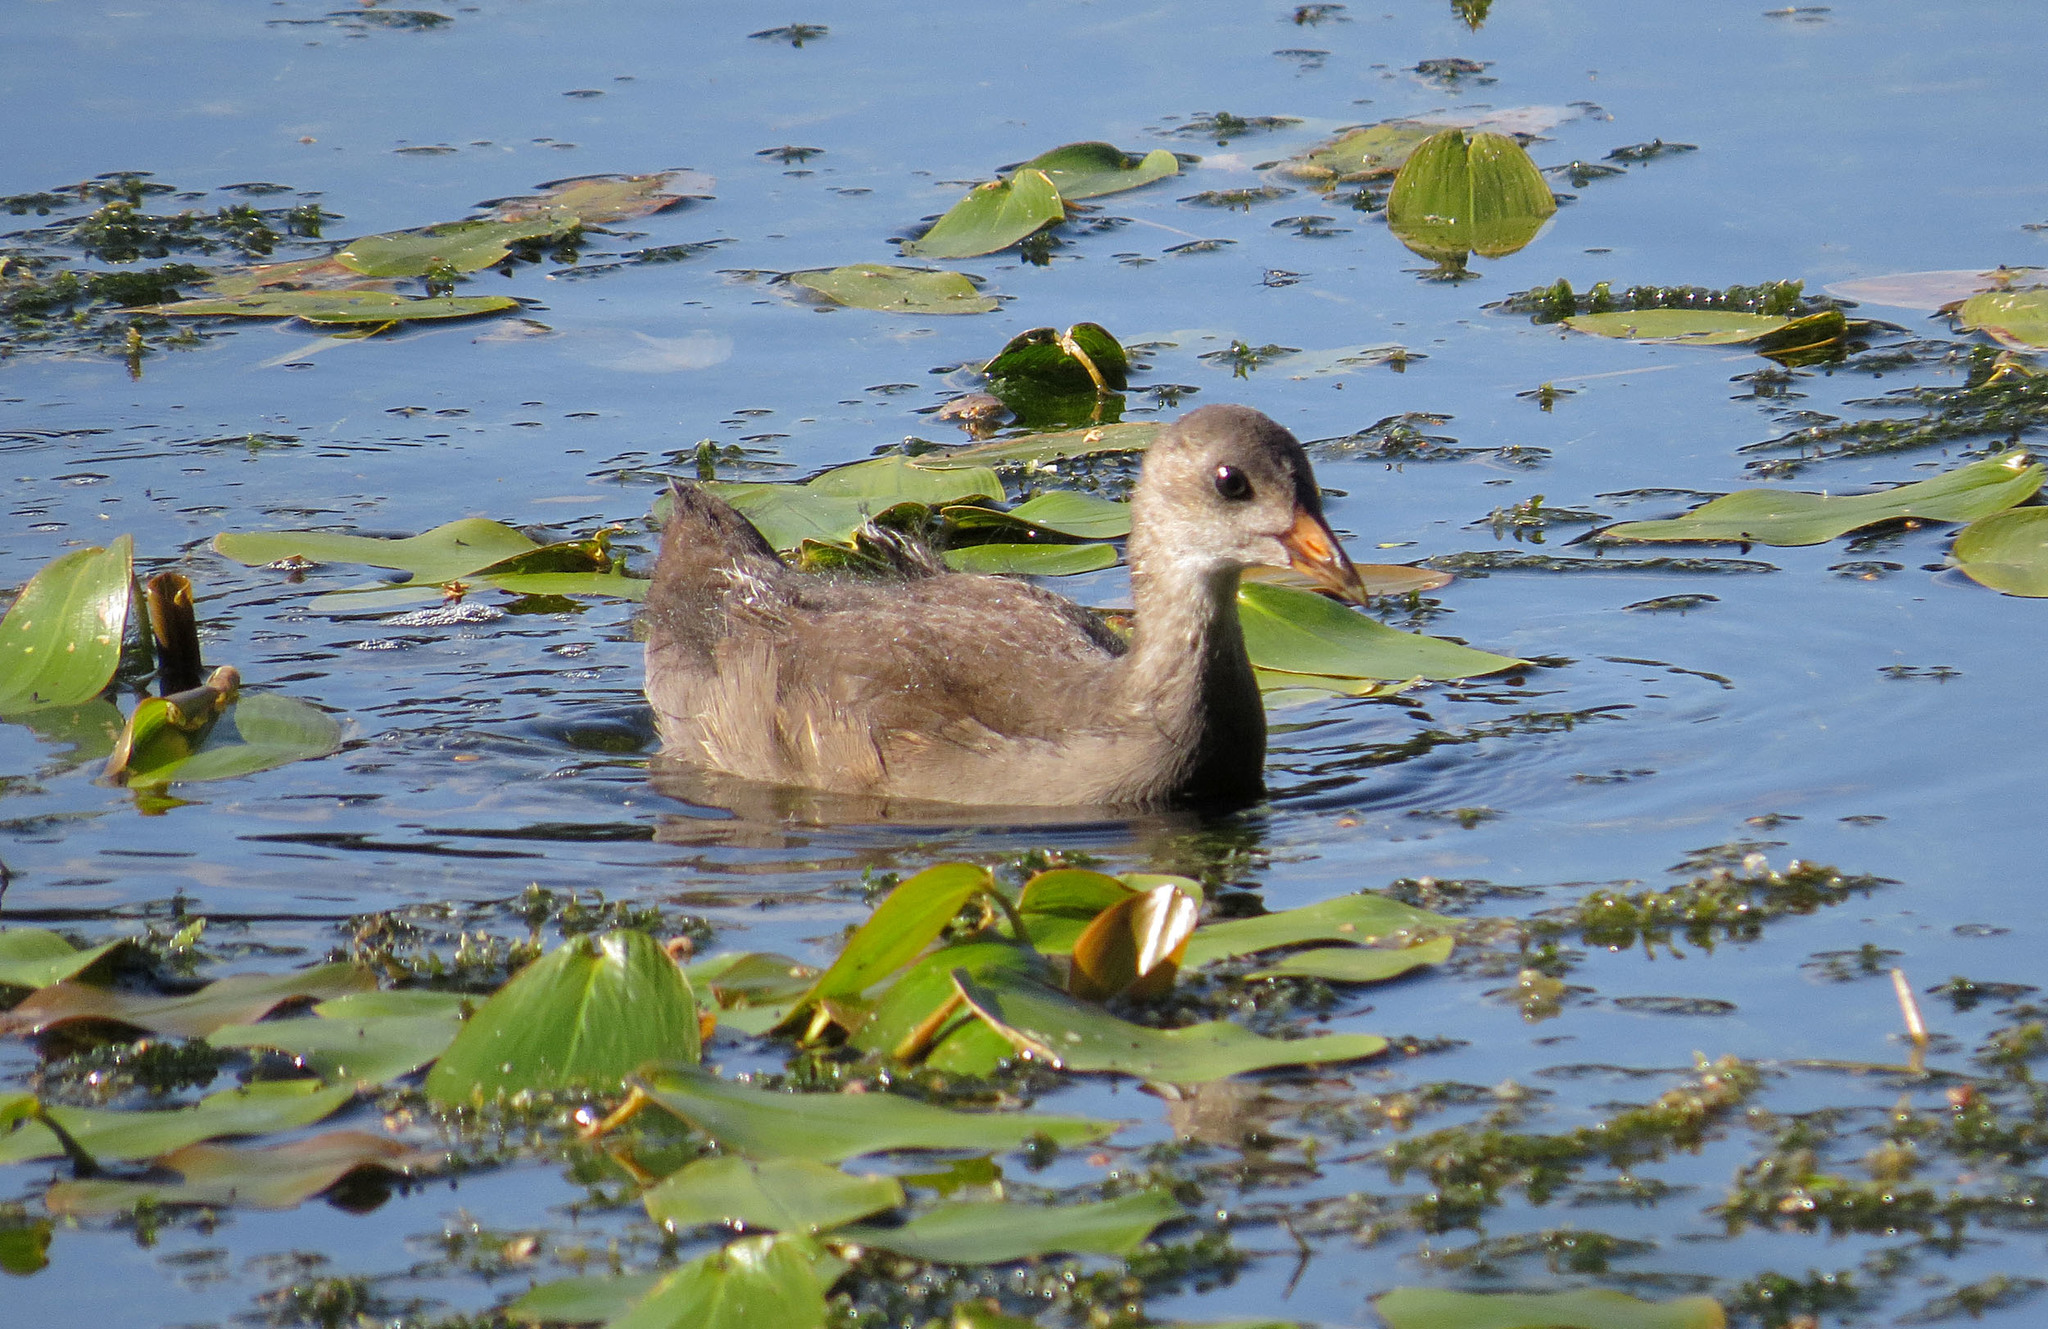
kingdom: Animalia
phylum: Chordata
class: Aves
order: Gruiformes
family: Rallidae
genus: Gallinula
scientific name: Gallinula chloropus
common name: Common moorhen
